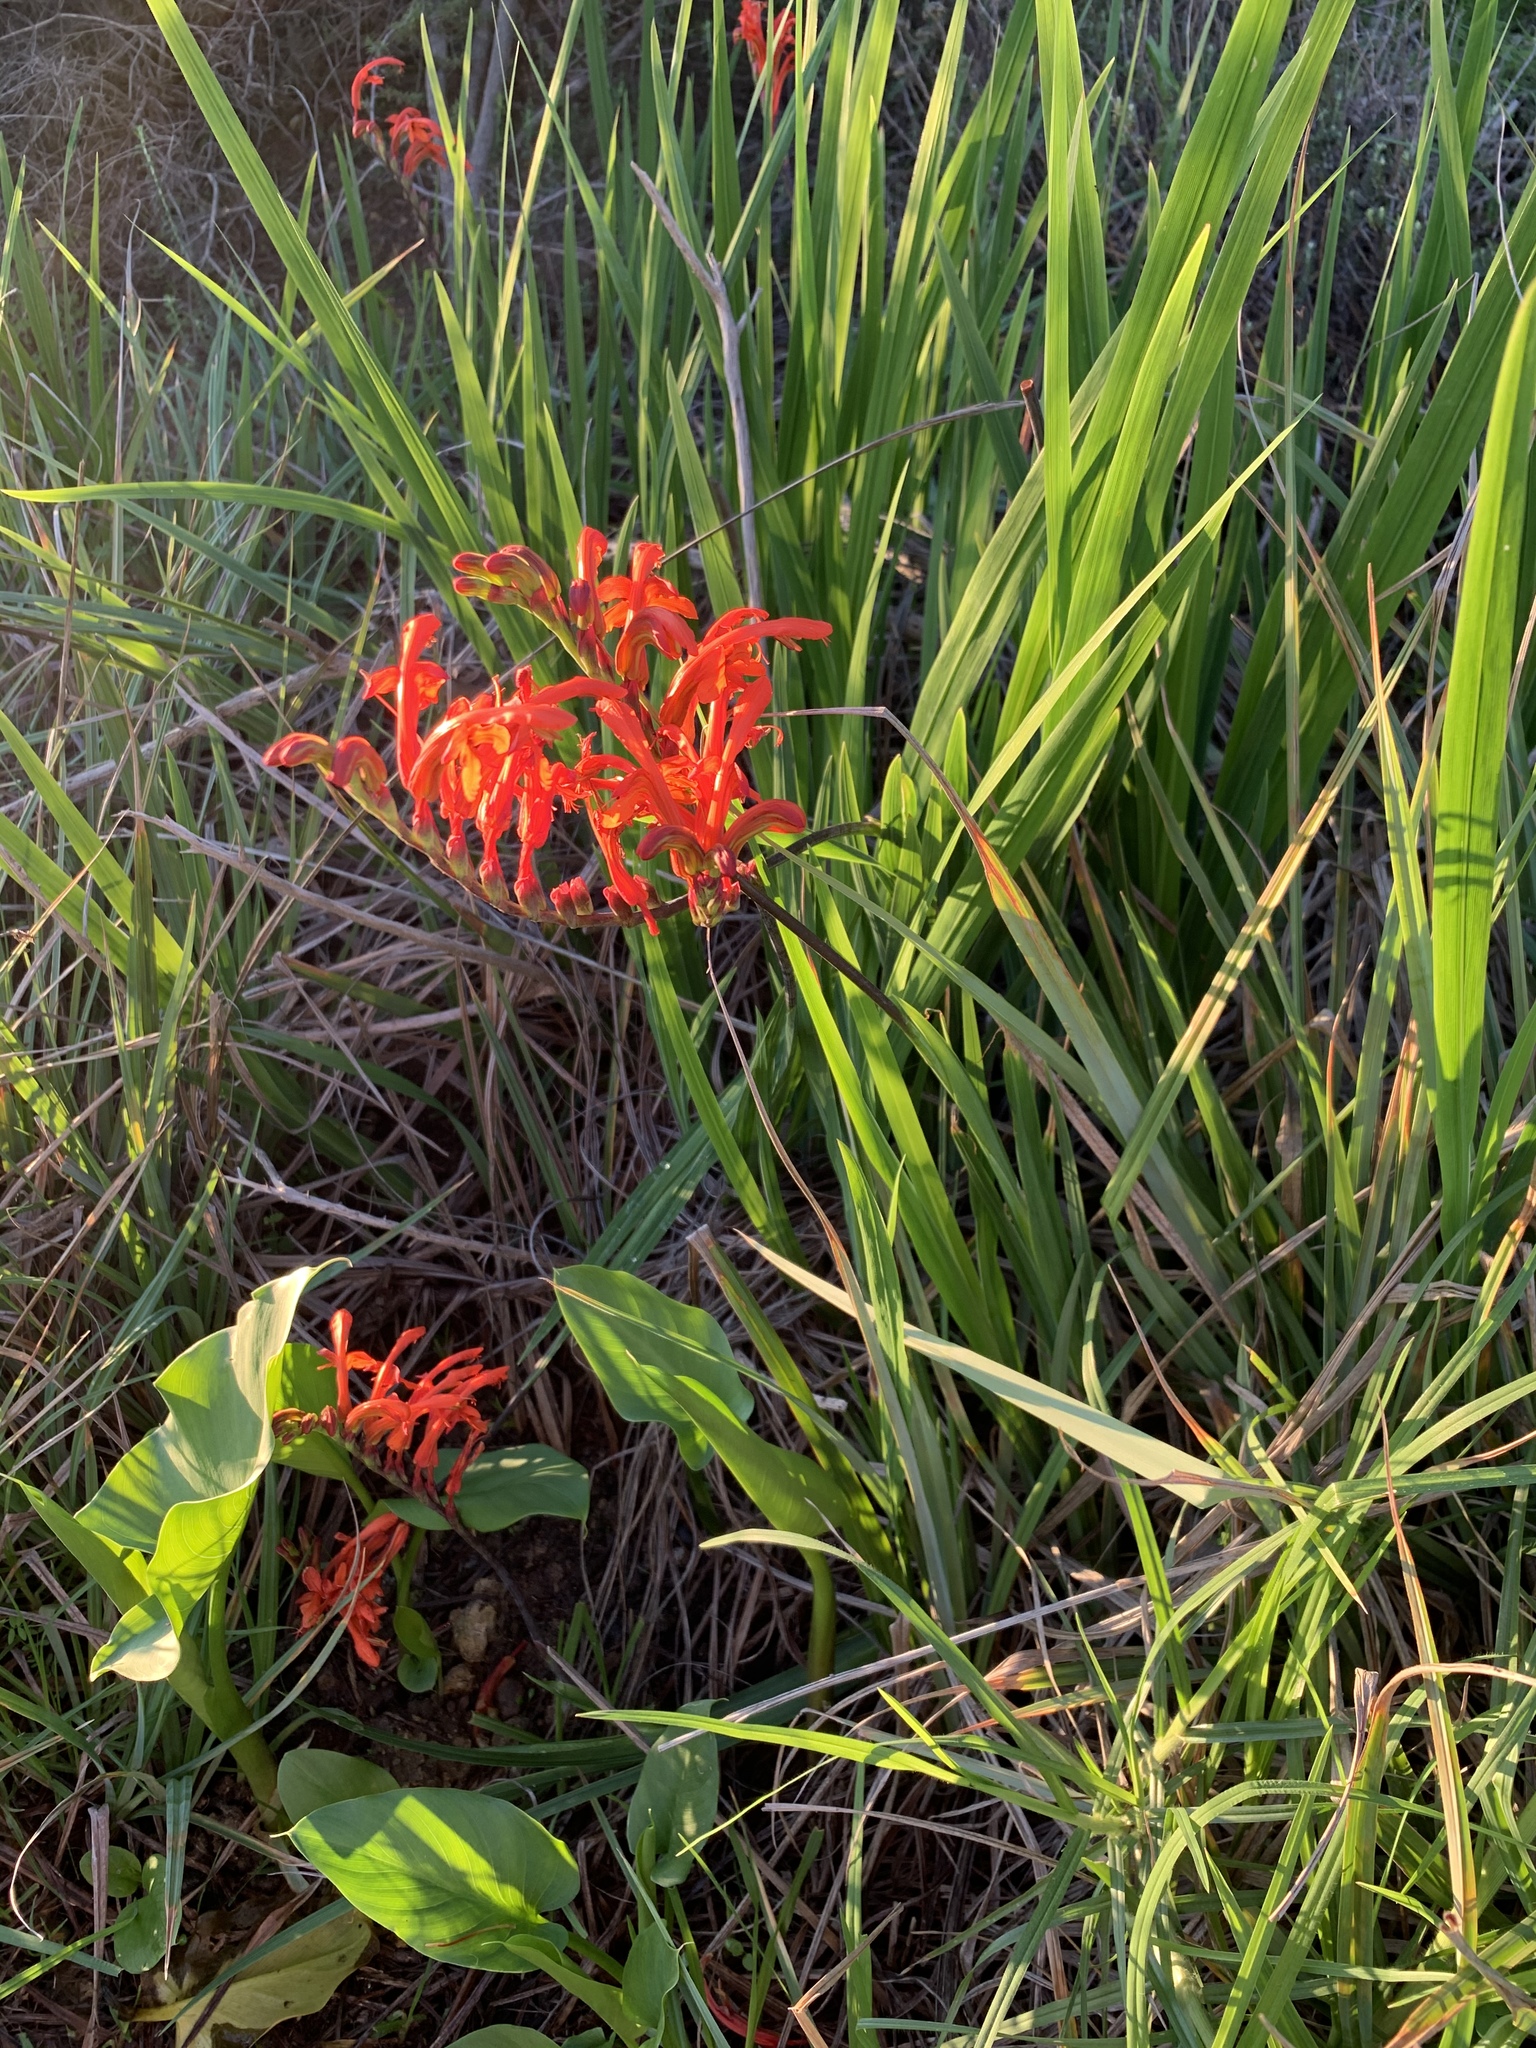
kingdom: Plantae
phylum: Tracheophyta
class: Liliopsida
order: Asparagales
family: Iridaceae
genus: Chasmanthe
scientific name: Chasmanthe aethiopica
